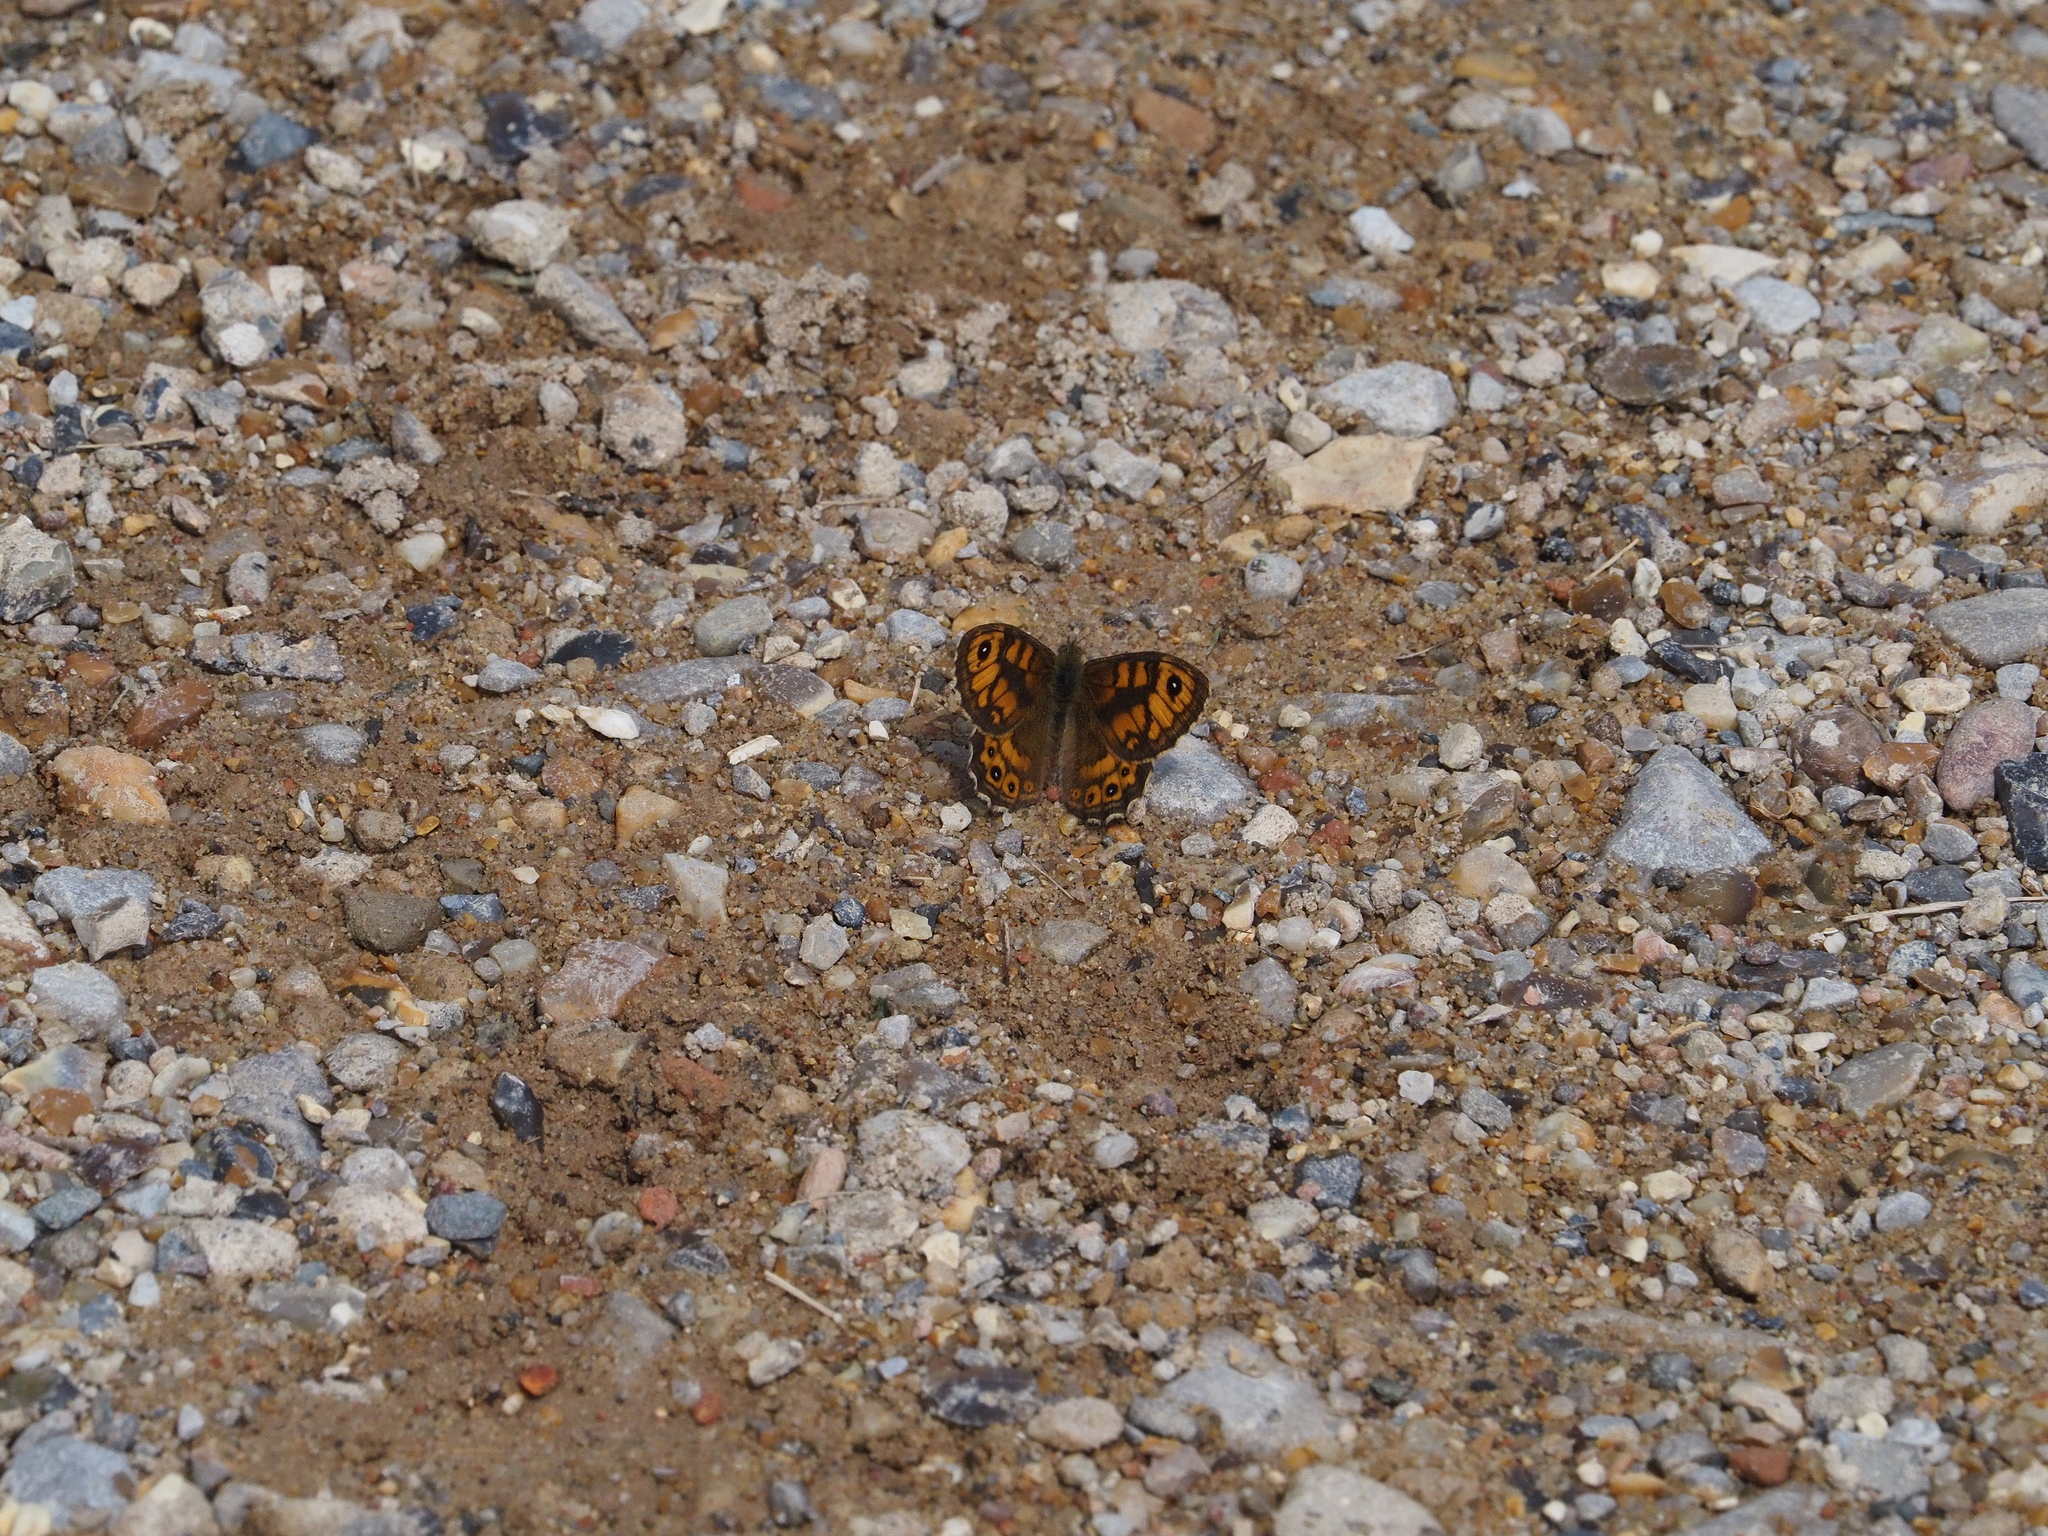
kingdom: Animalia
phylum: Arthropoda
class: Insecta
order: Lepidoptera
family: Nymphalidae
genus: Pararge
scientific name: Pararge Lasiommata megera
